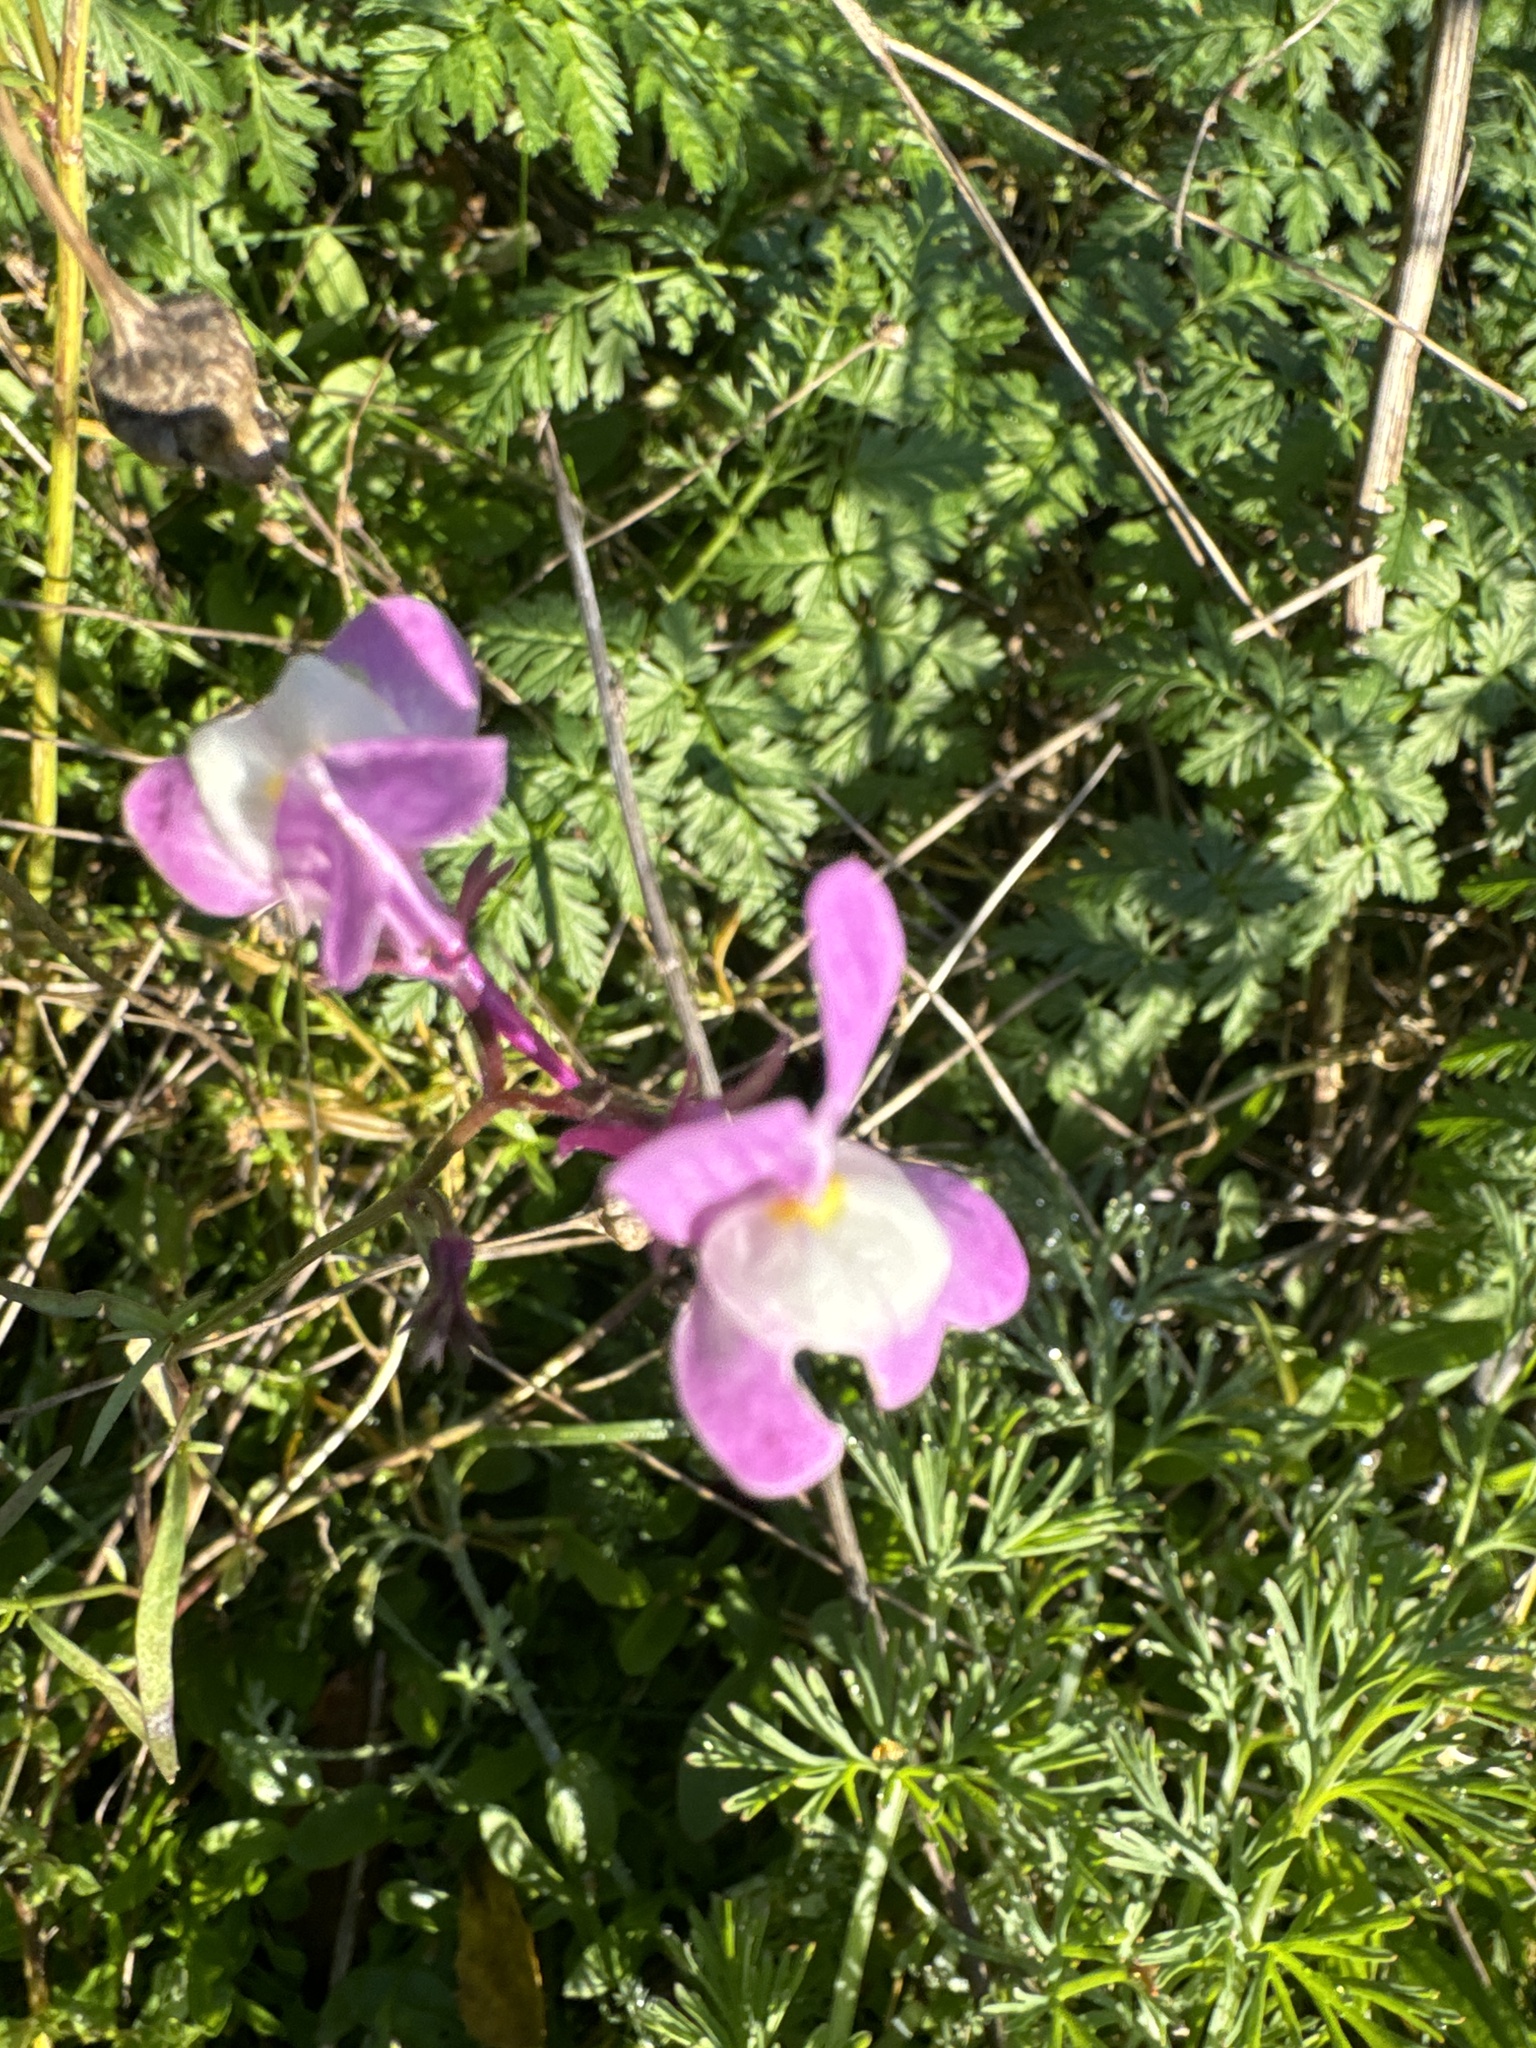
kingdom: Plantae
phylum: Tracheophyta
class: Magnoliopsida
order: Lamiales
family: Plantaginaceae
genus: Linaria
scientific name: Linaria maroccana
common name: Moroccan toadflax
